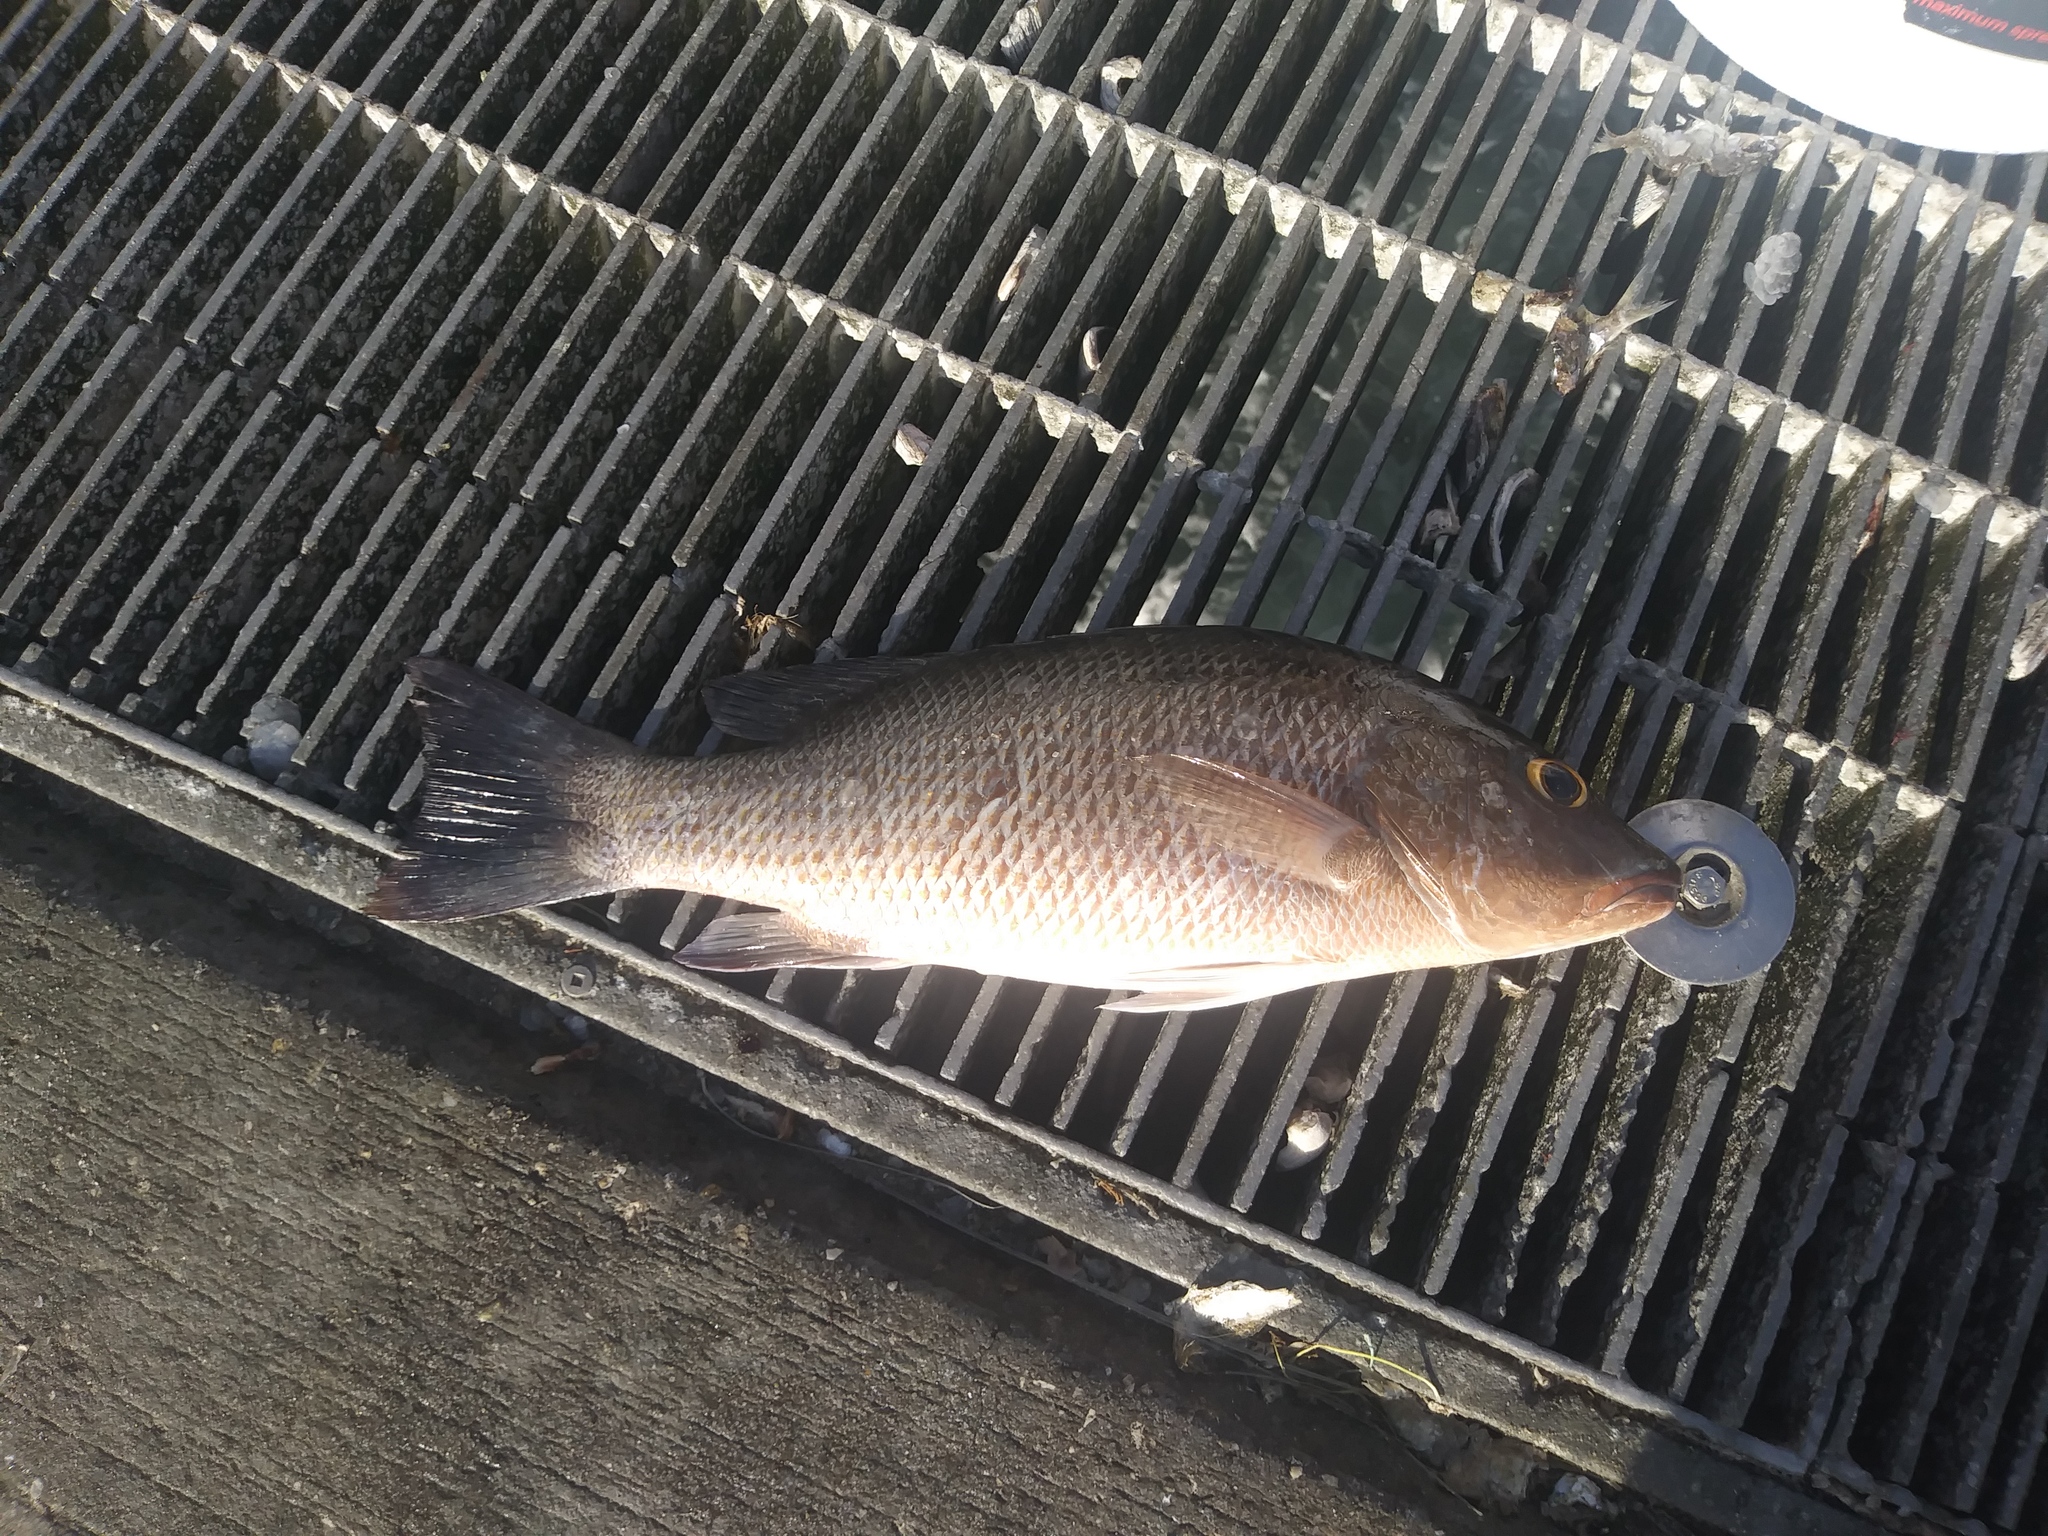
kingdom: Animalia
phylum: Chordata
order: Perciformes
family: Lutjanidae
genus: Lutjanus
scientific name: Lutjanus griseus
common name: Gray snapper
